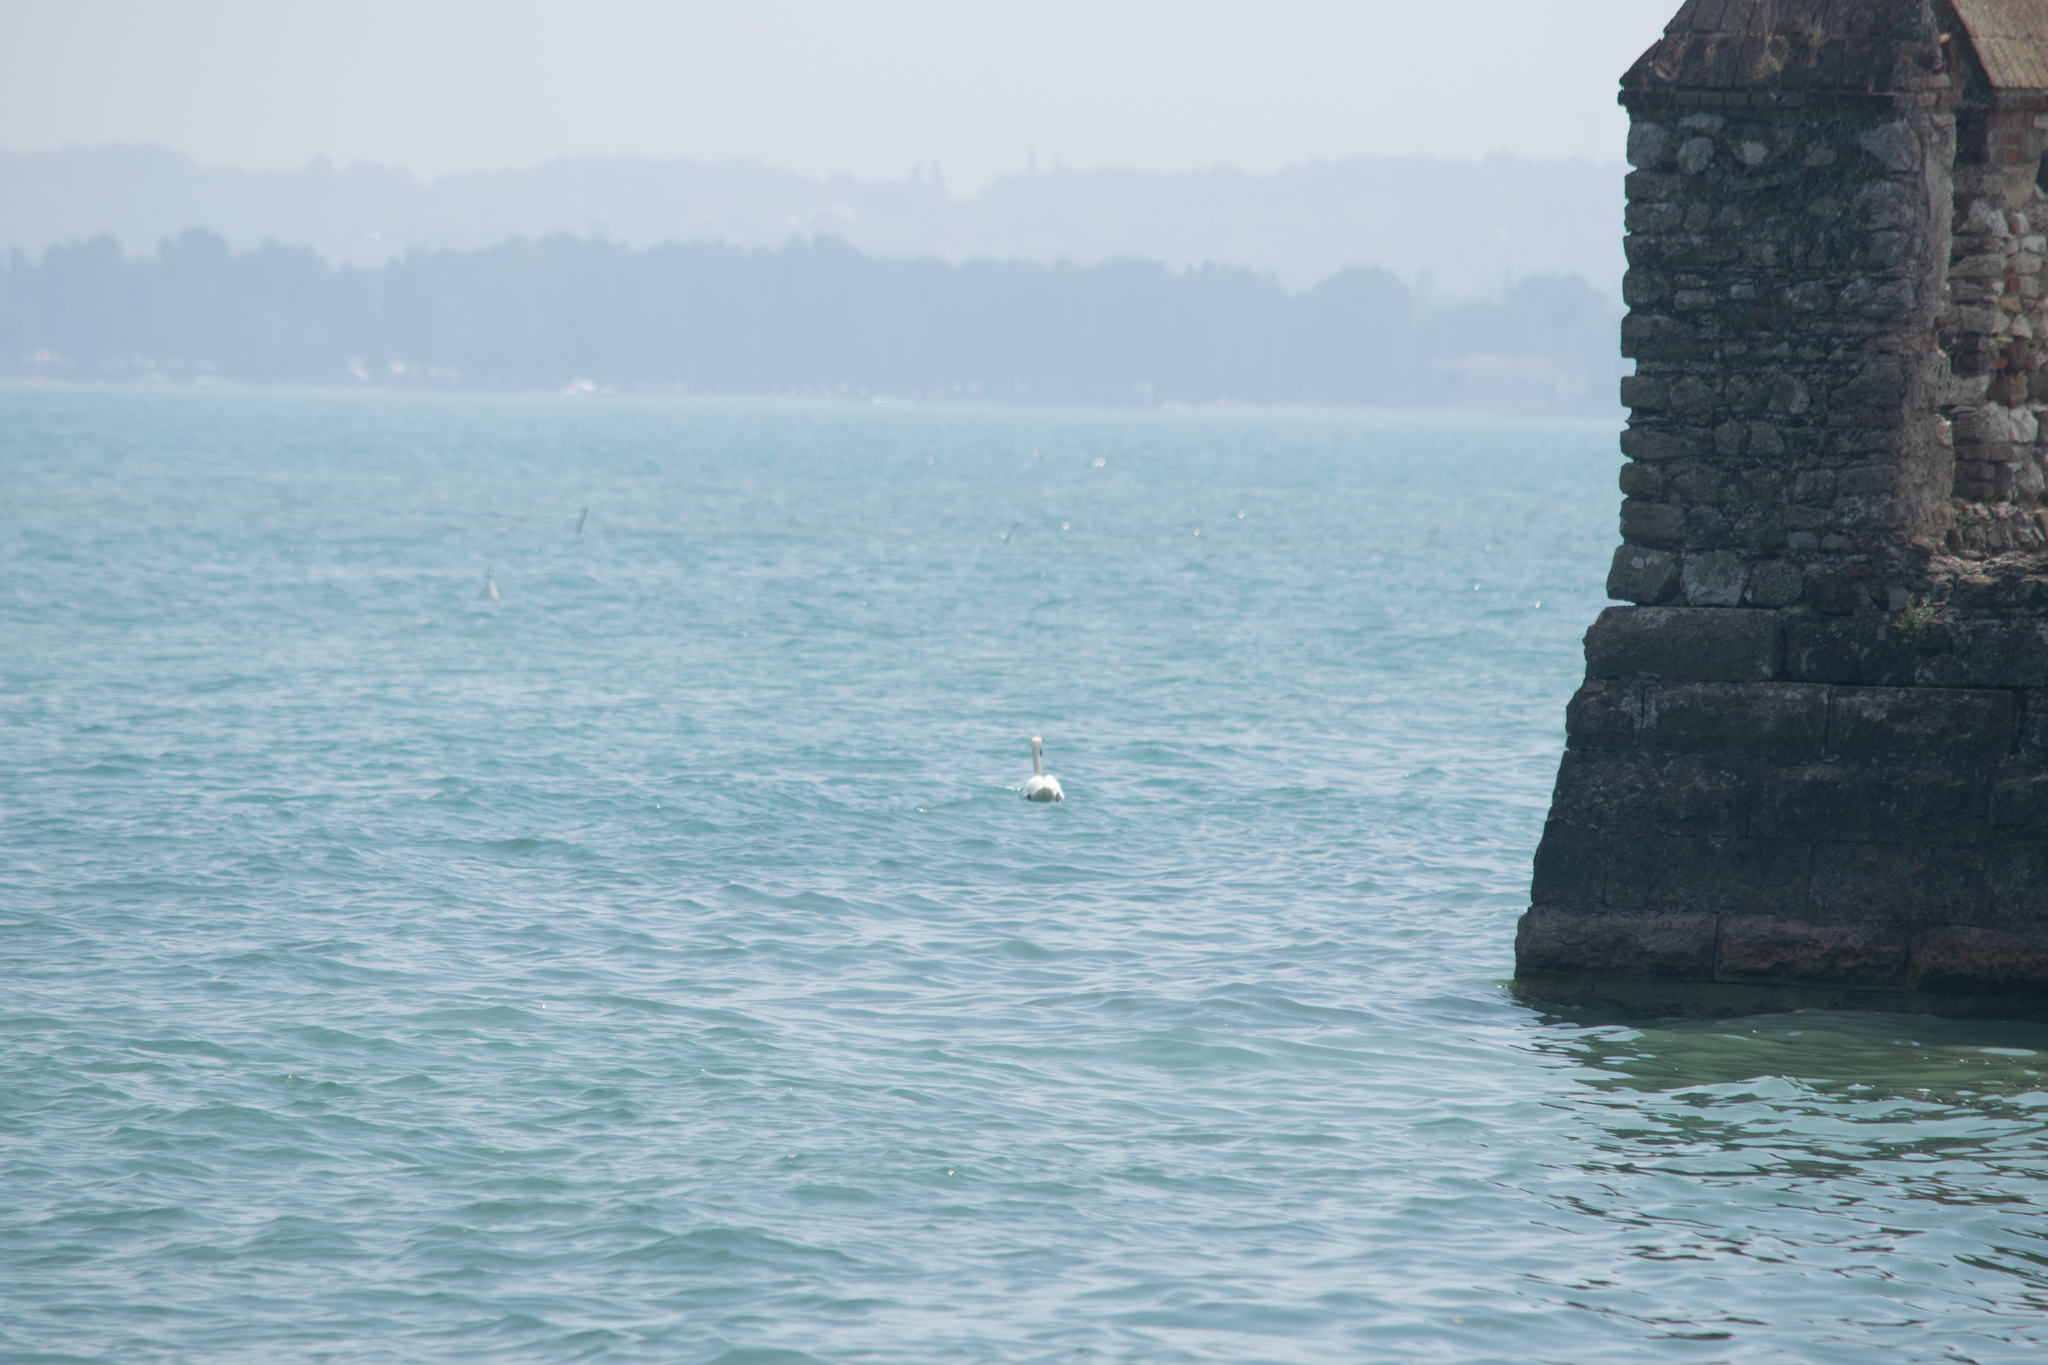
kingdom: Animalia
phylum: Chordata
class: Aves
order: Anseriformes
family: Anatidae
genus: Cygnus
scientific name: Cygnus olor
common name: Mute swan
